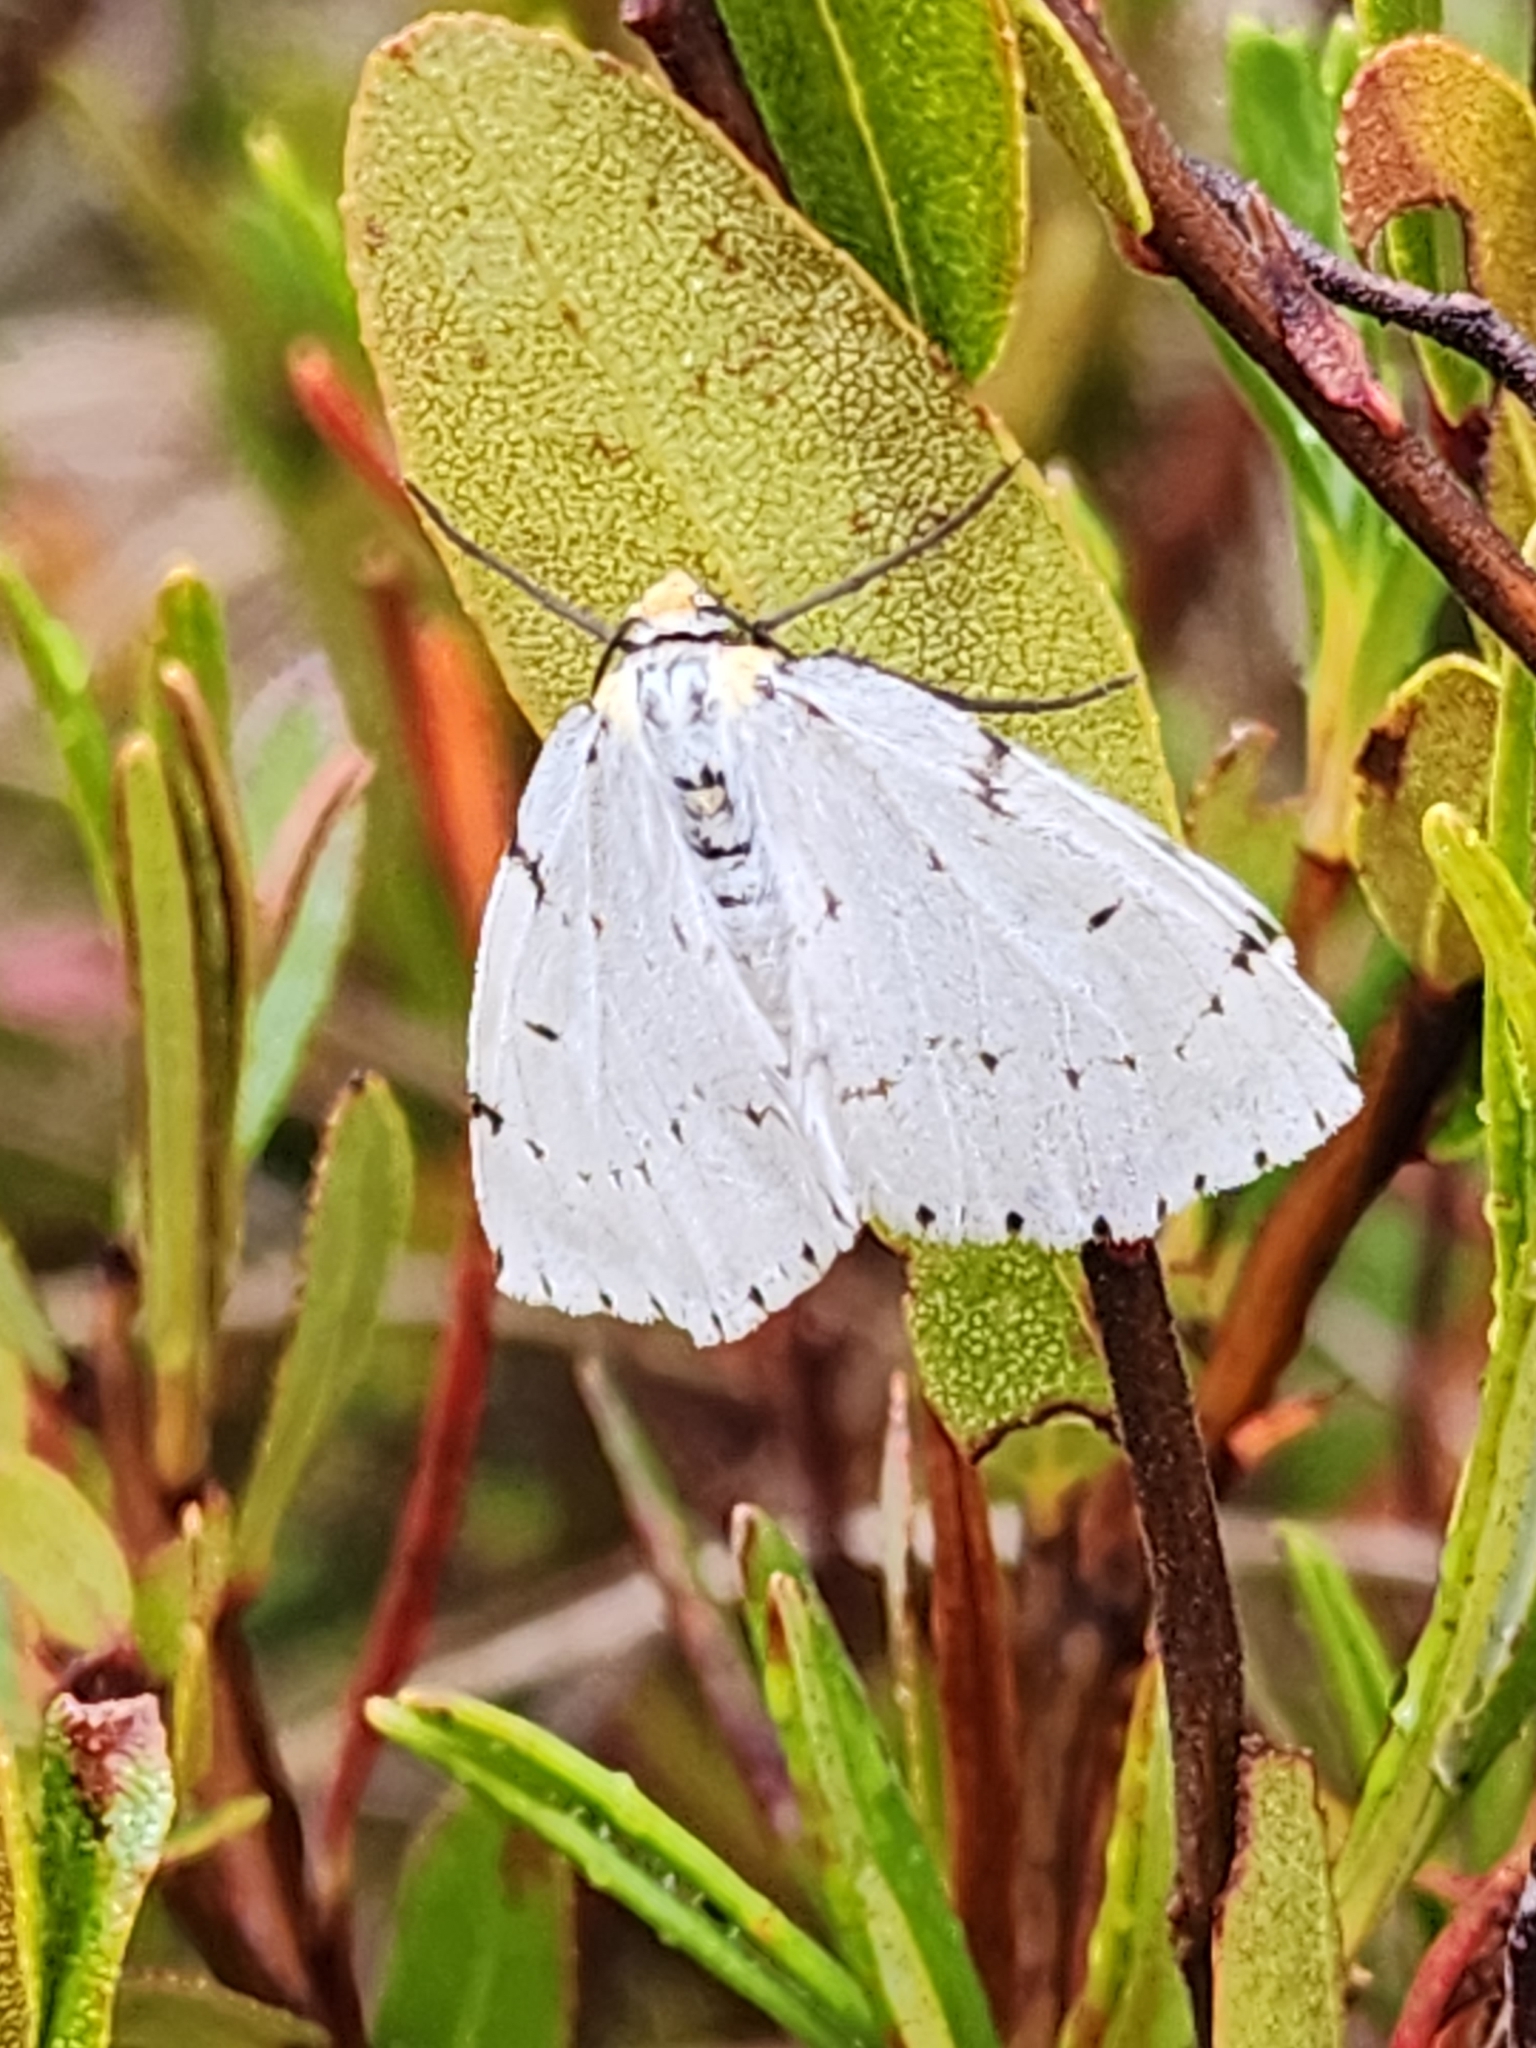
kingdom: Animalia
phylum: Arthropoda
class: Insecta
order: Lepidoptera
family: Geometridae
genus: Cingilia
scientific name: Cingilia catenaria
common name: Chain-dotted geometer
